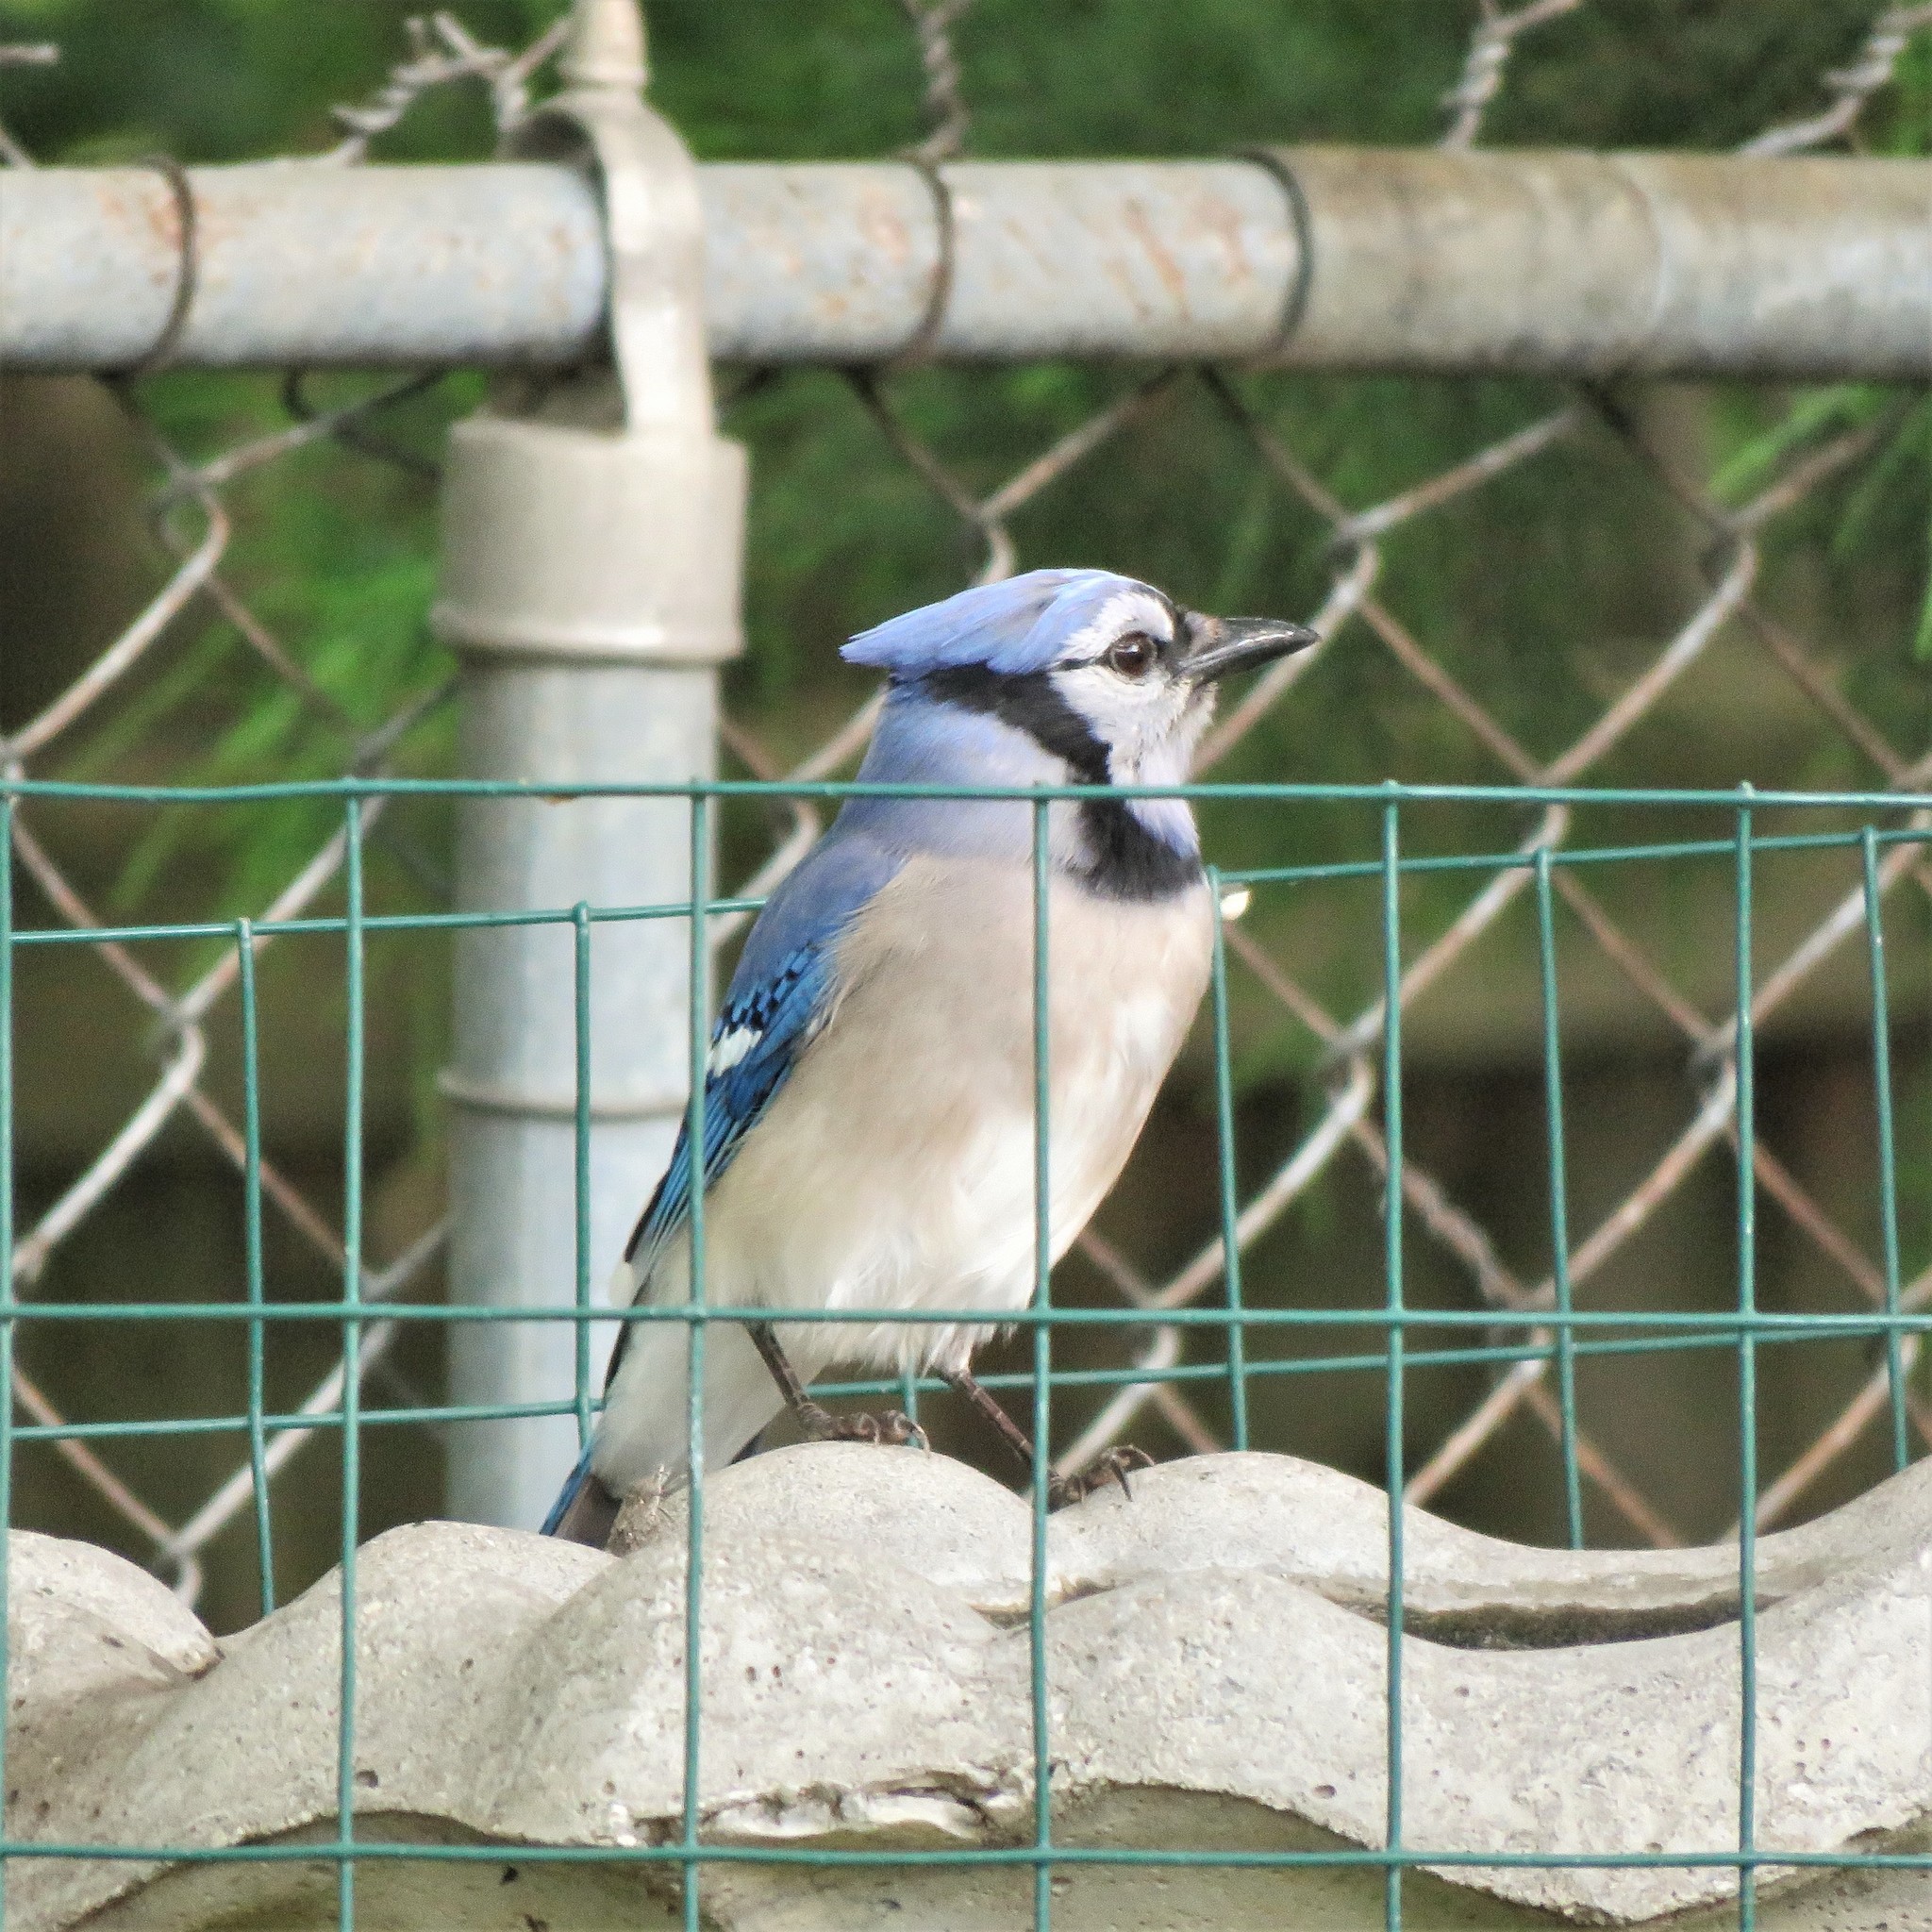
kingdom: Animalia
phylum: Chordata
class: Aves
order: Passeriformes
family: Corvidae
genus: Cyanocitta
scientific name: Cyanocitta cristata
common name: Blue jay
